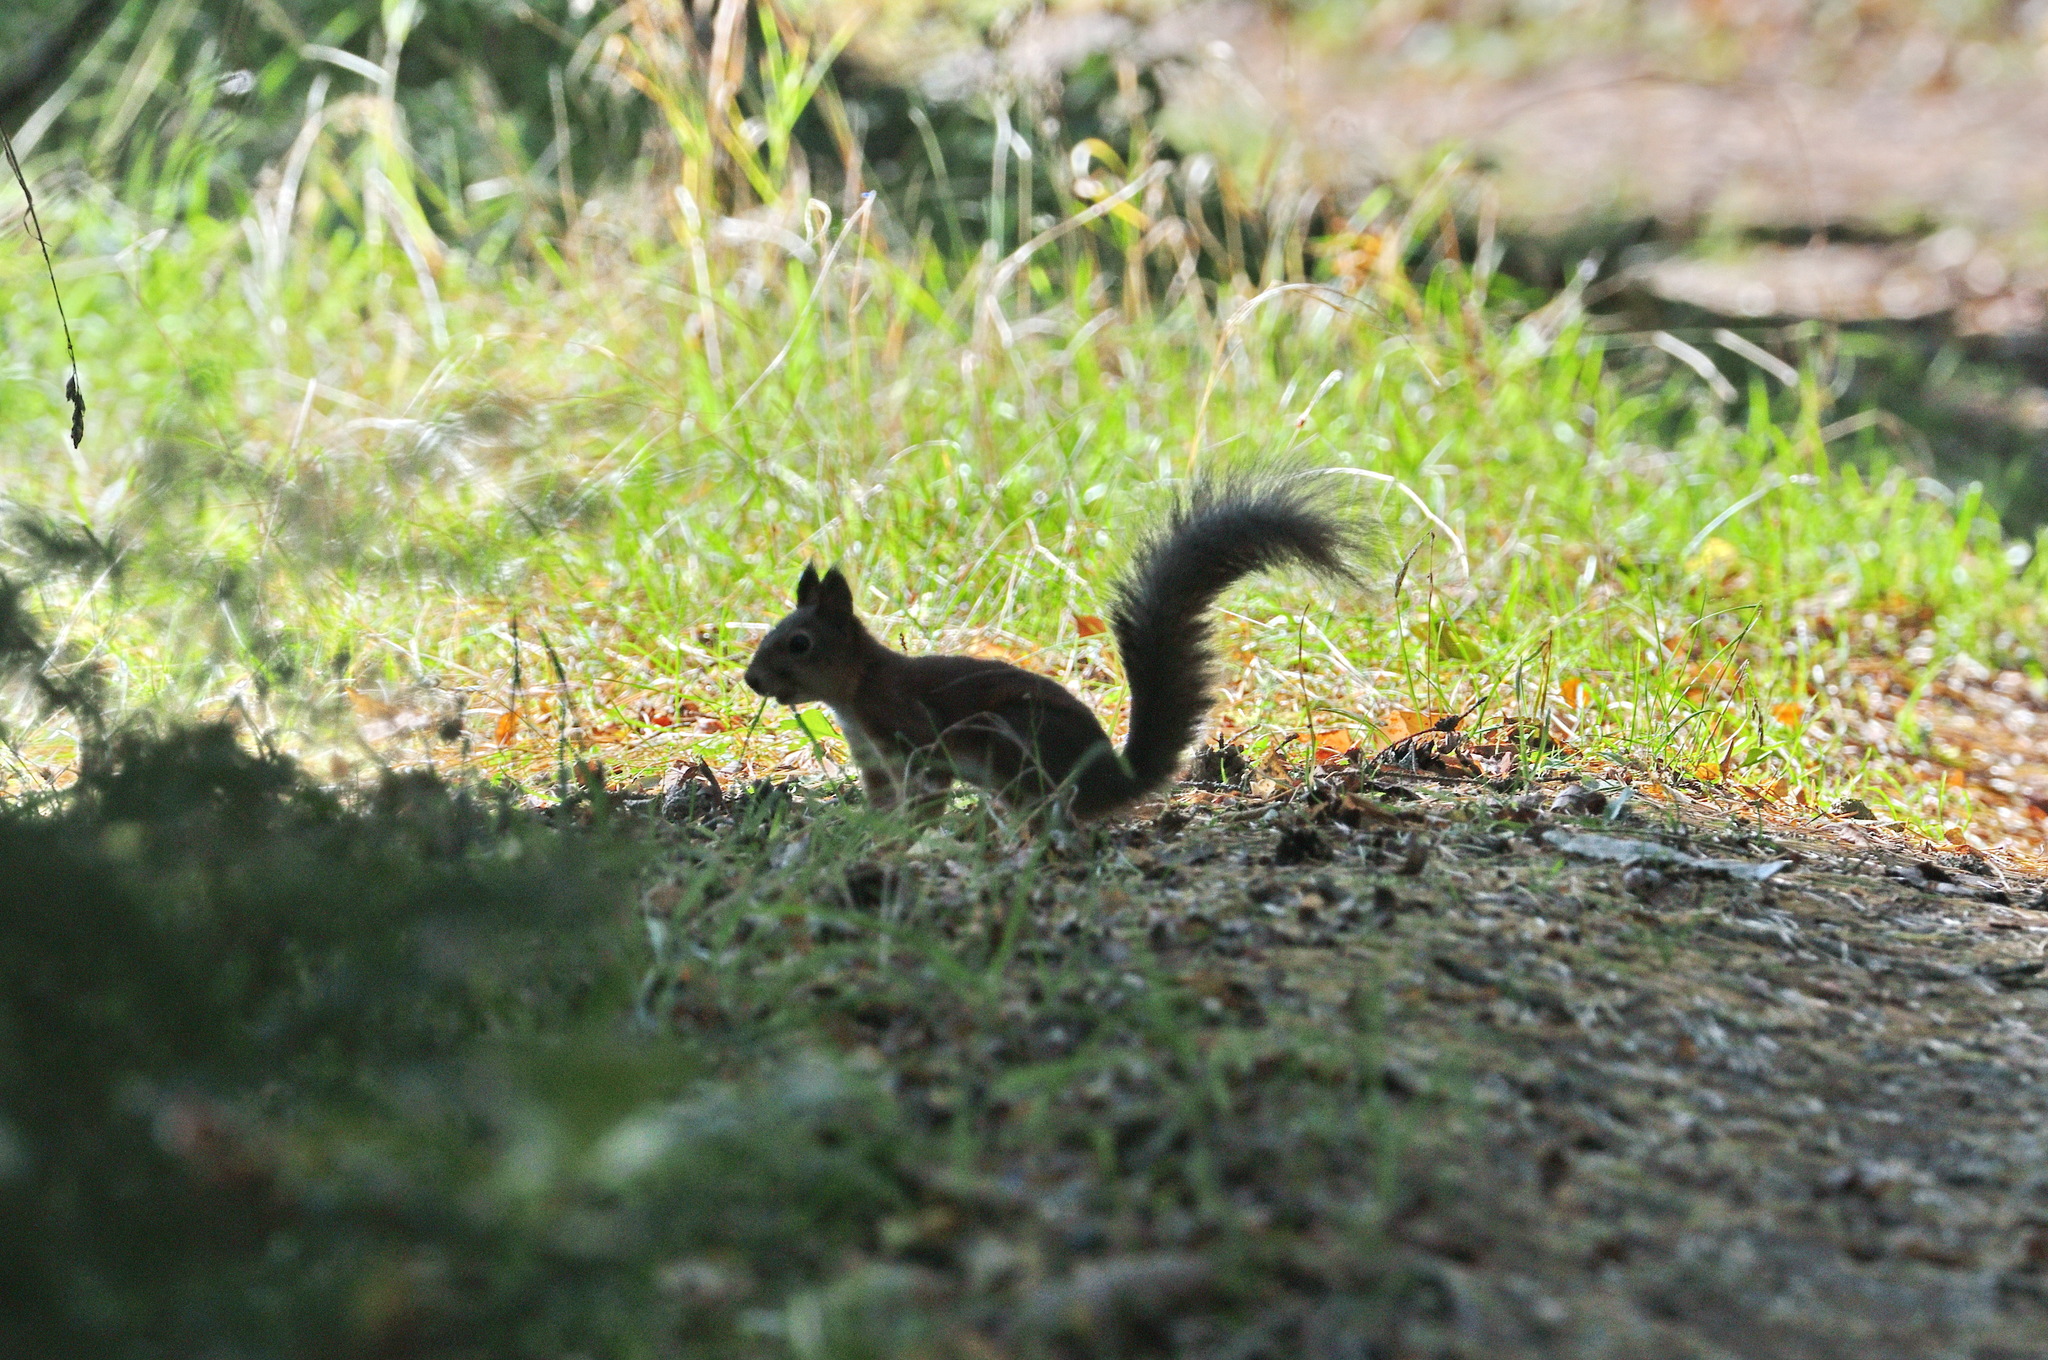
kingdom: Animalia
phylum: Chordata
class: Mammalia
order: Rodentia
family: Sciuridae
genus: Sciurus
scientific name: Sciurus vulgaris
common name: Eurasian red squirrel
